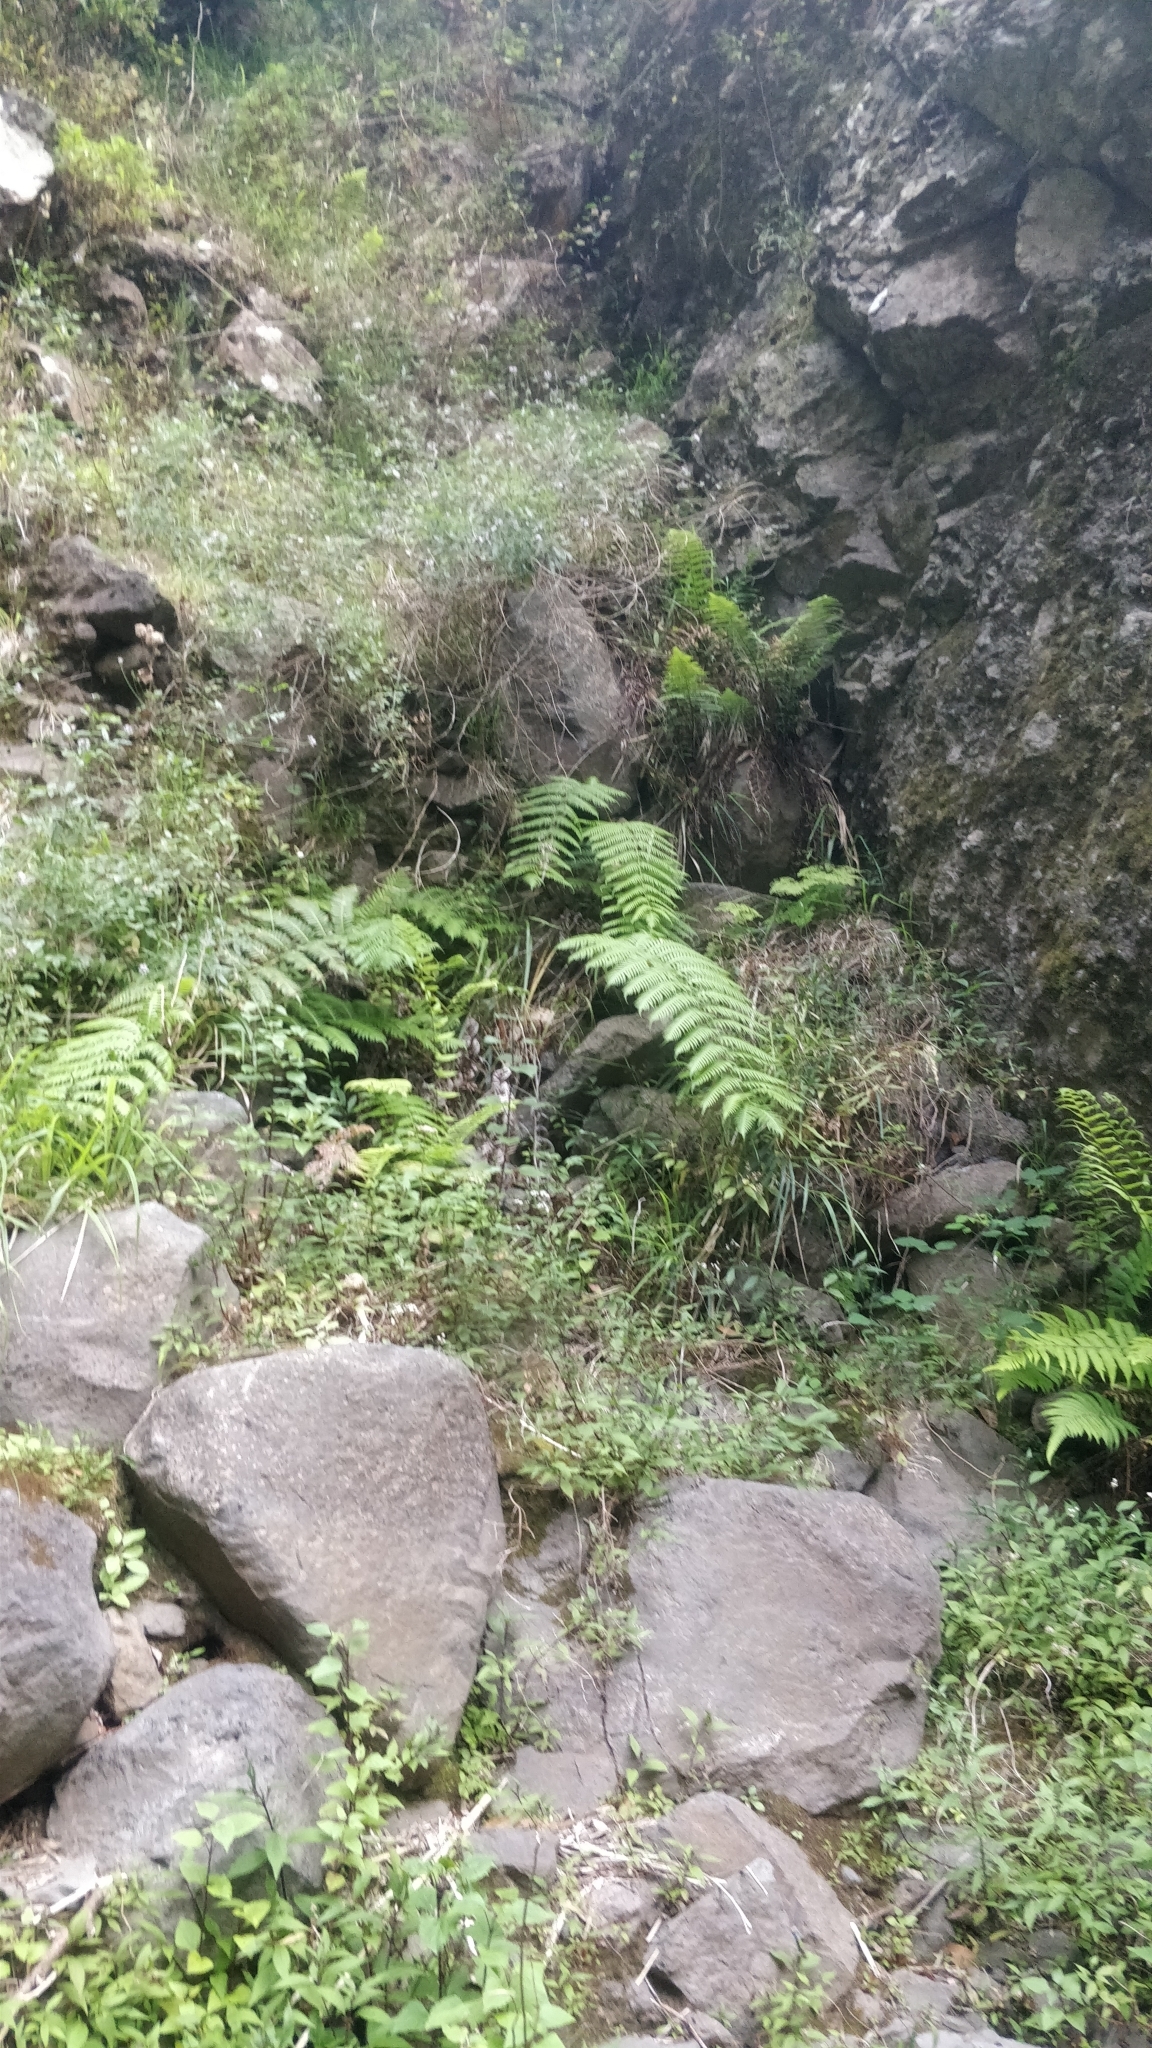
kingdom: Plantae
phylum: Tracheophyta
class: Polypodiopsida
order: Polypodiales
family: Blechnaceae
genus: Woodwardia
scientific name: Woodwardia radicans
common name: Rooting chainfern
